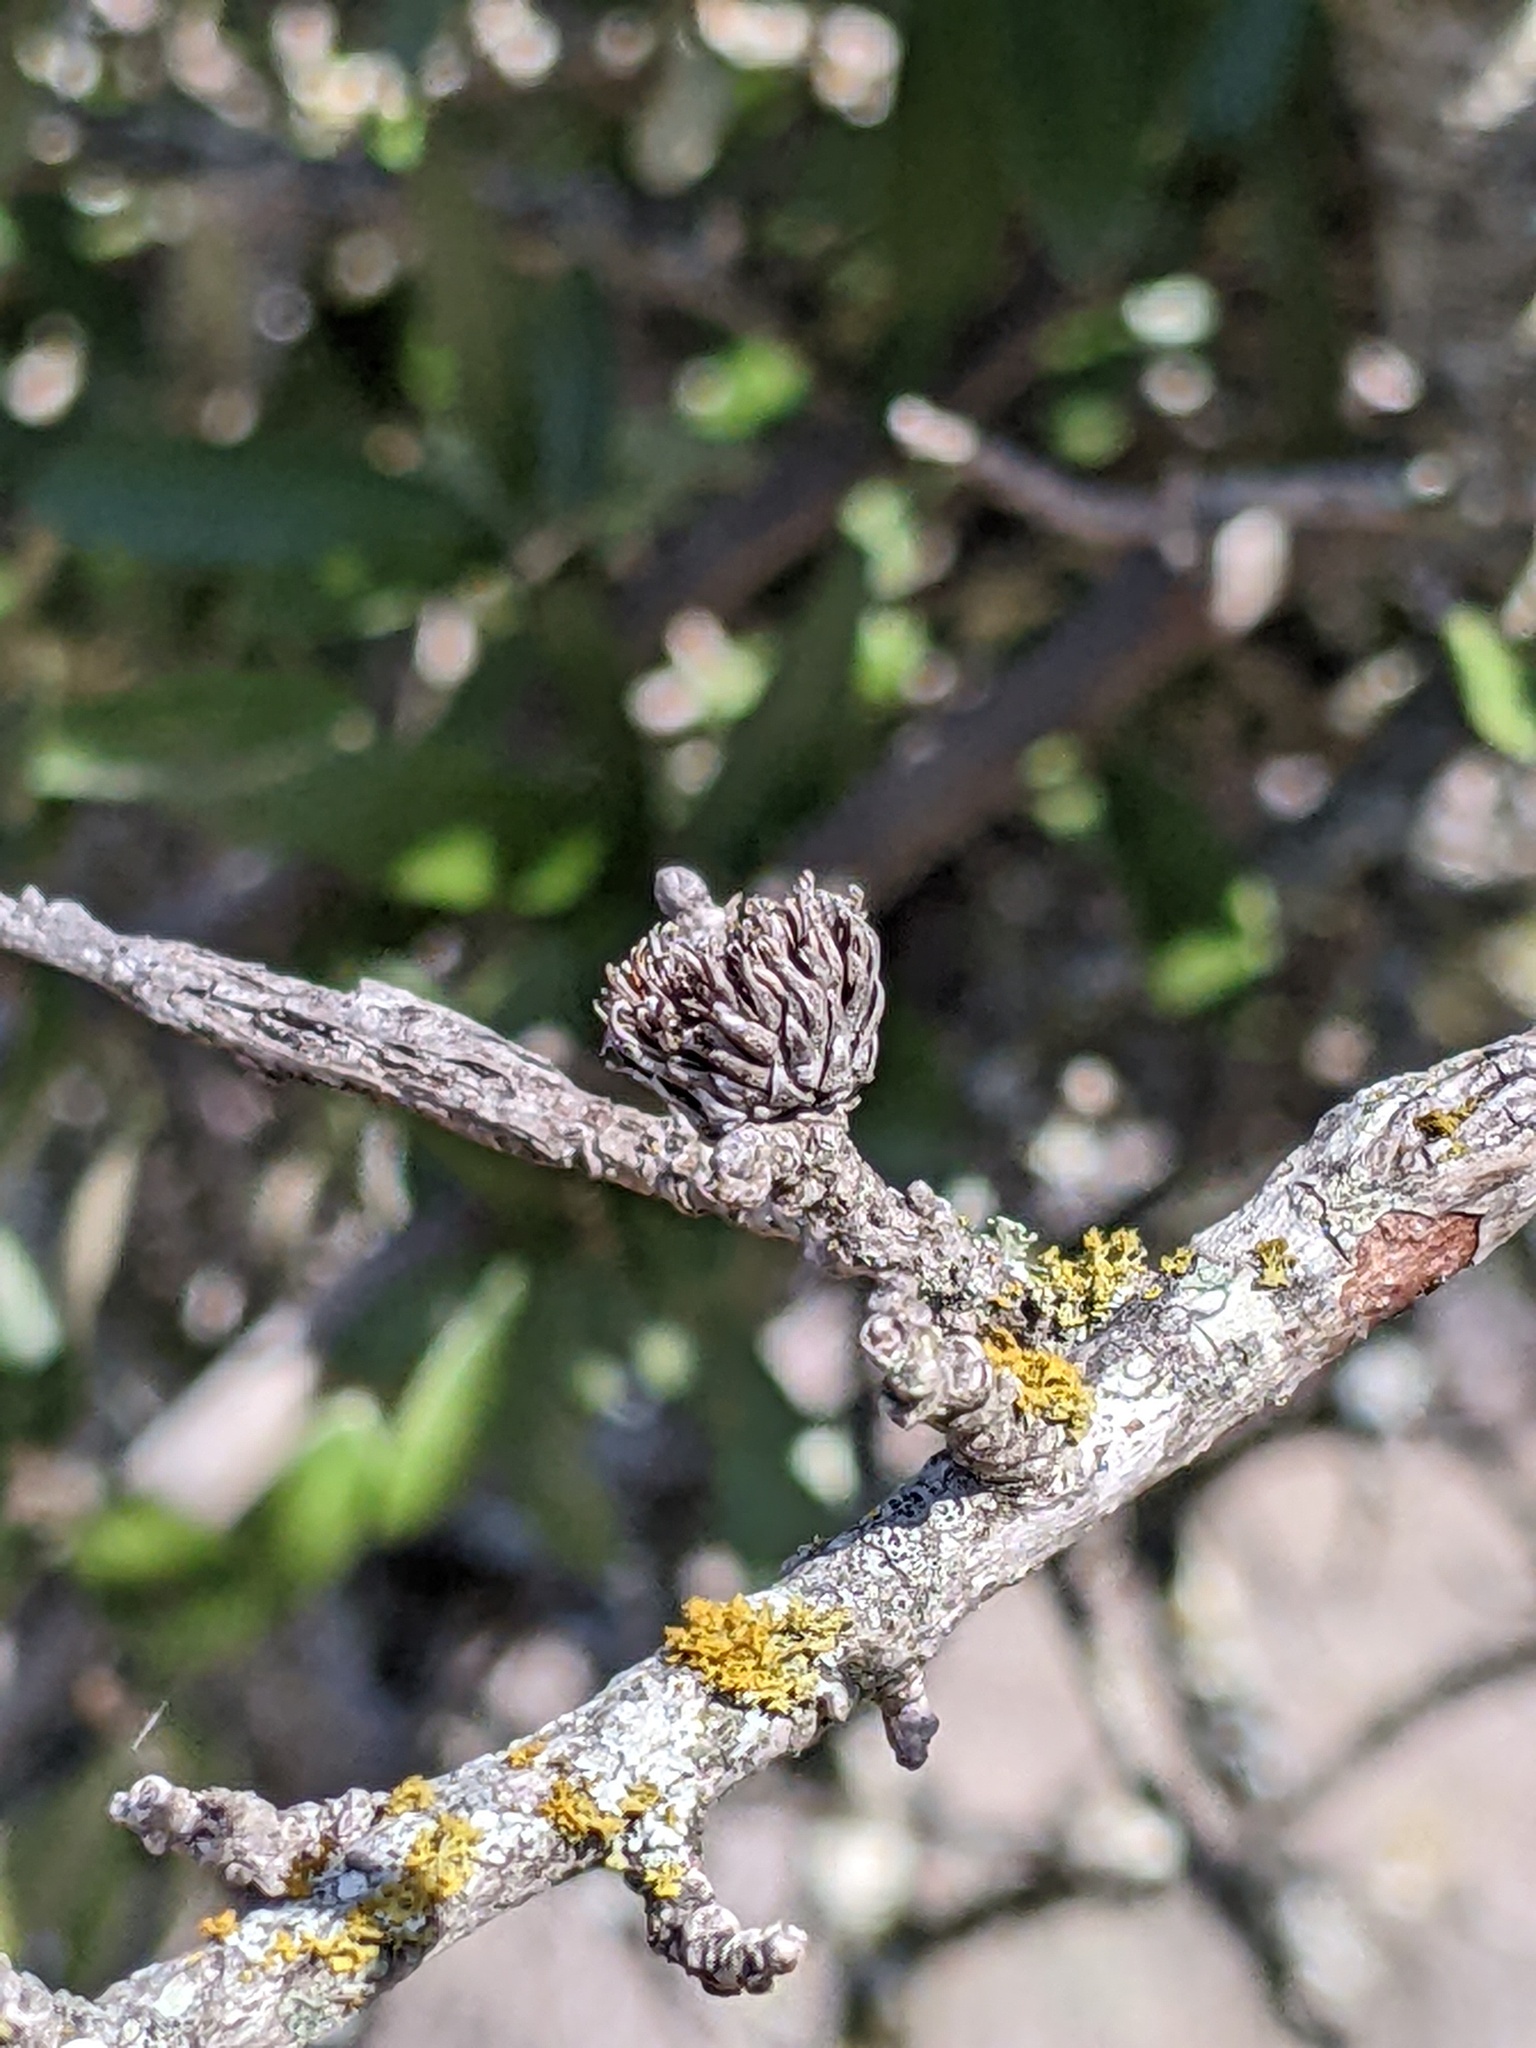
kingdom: Animalia
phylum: Arthropoda
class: Insecta
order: Hymenoptera
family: Cynipidae
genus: Andricus
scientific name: Andricus quercusfoliatus
